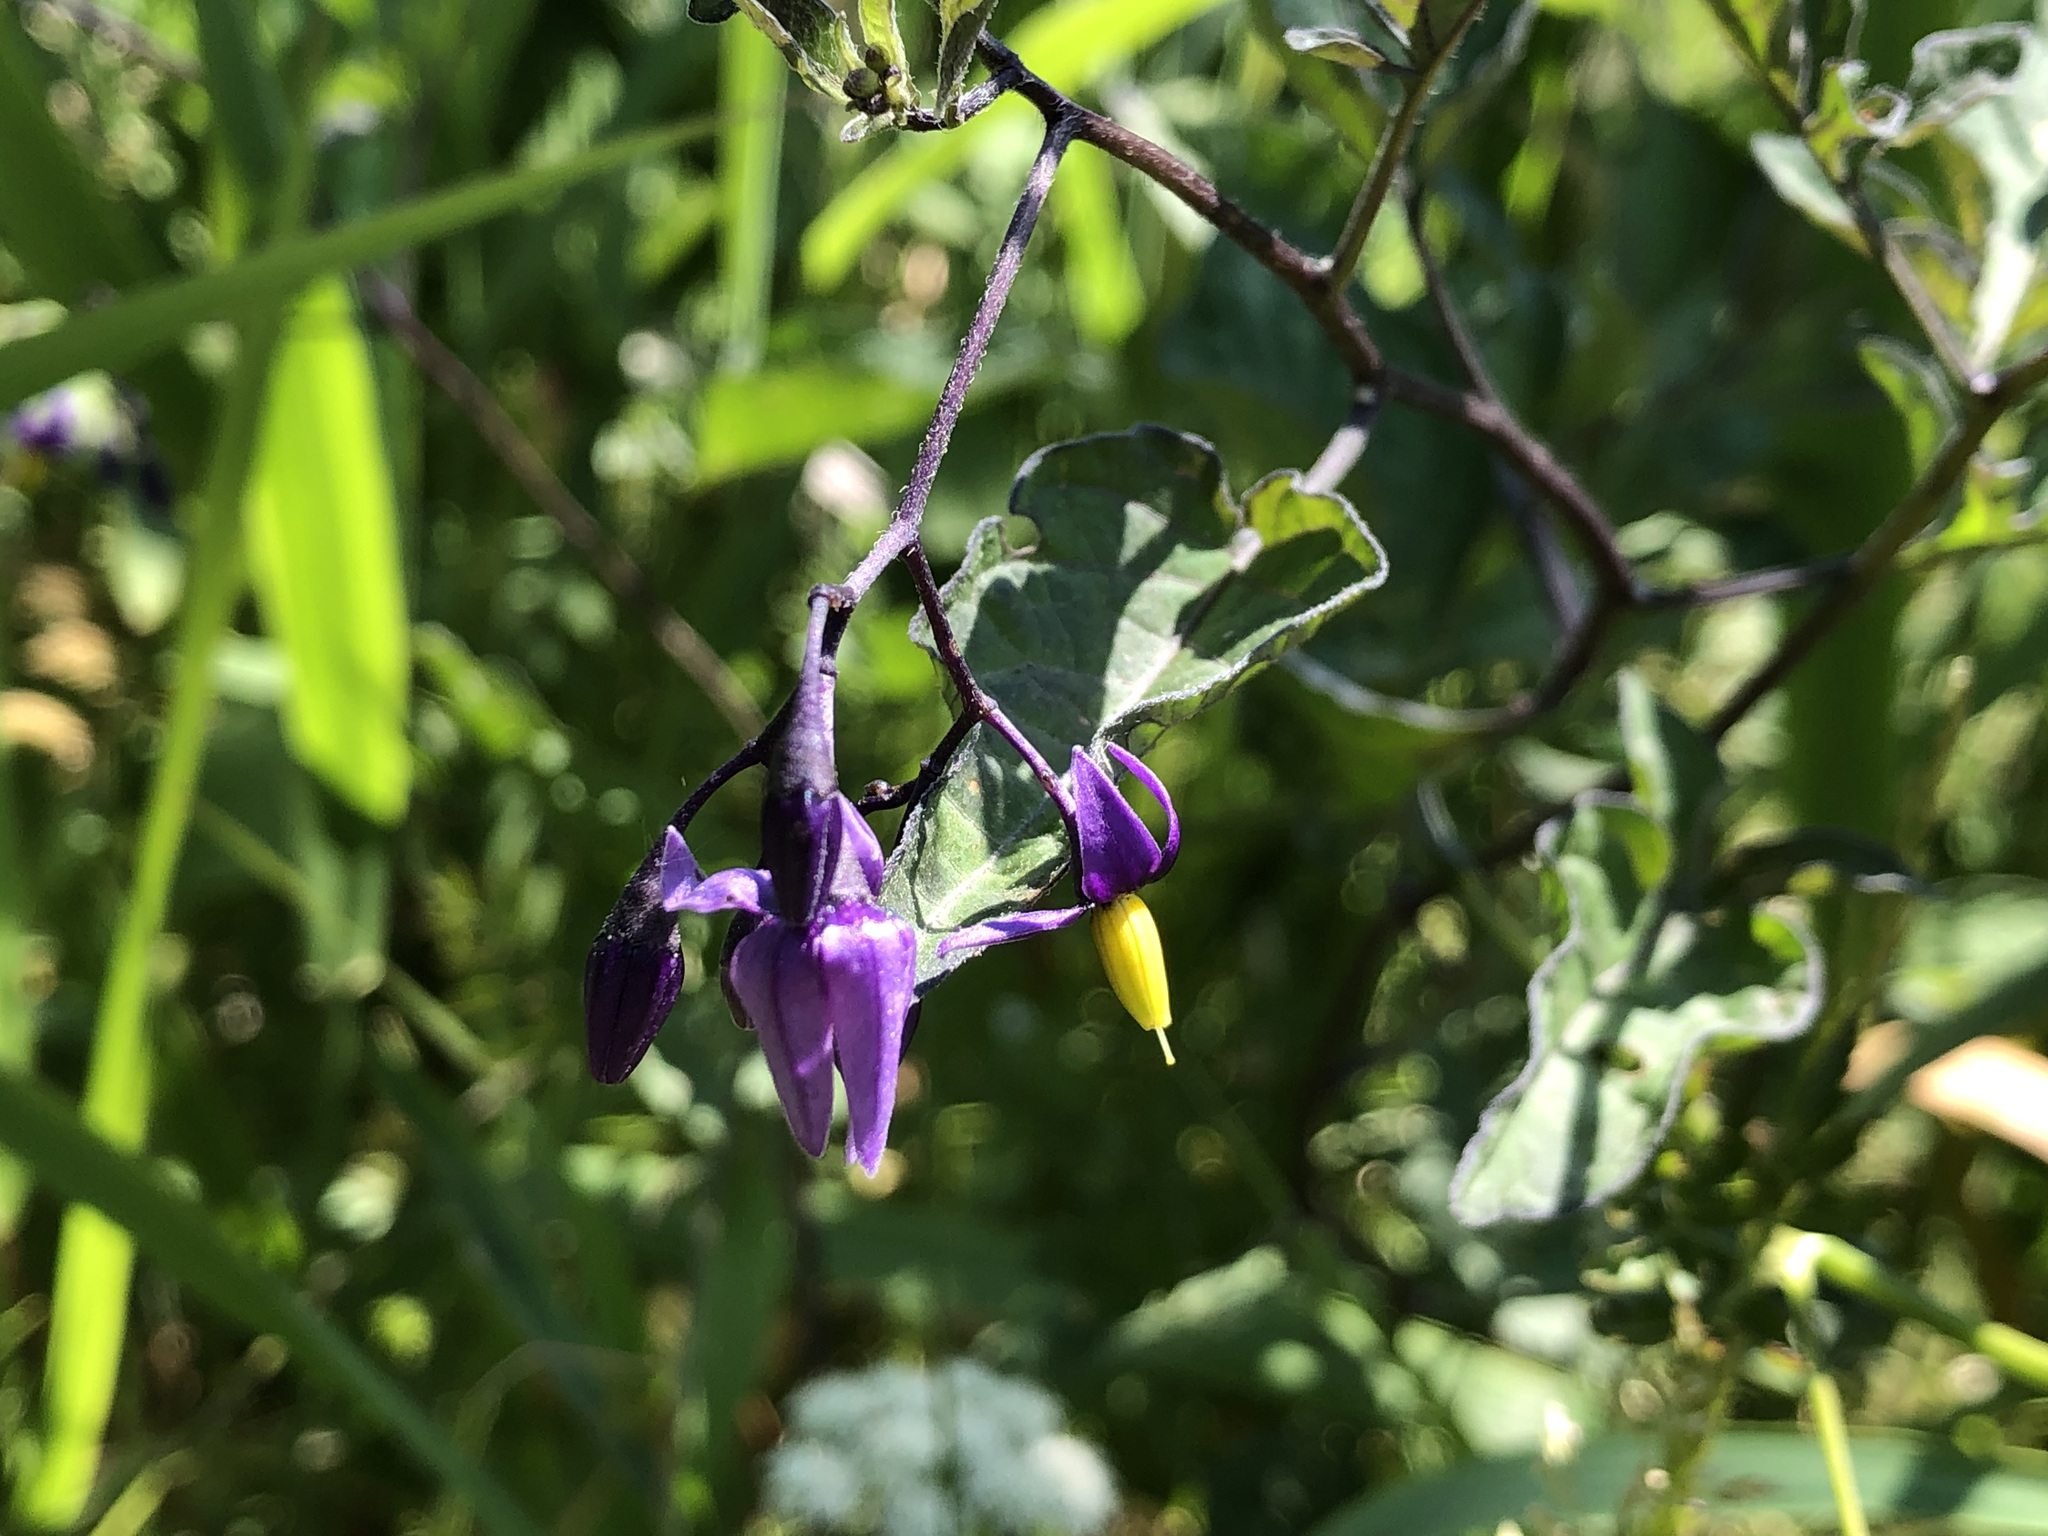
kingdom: Plantae
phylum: Tracheophyta
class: Magnoliopsida
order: Solanales
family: Solanaceae
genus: Solanum
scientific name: Solanum dulcamara
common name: Climbing nightshade
